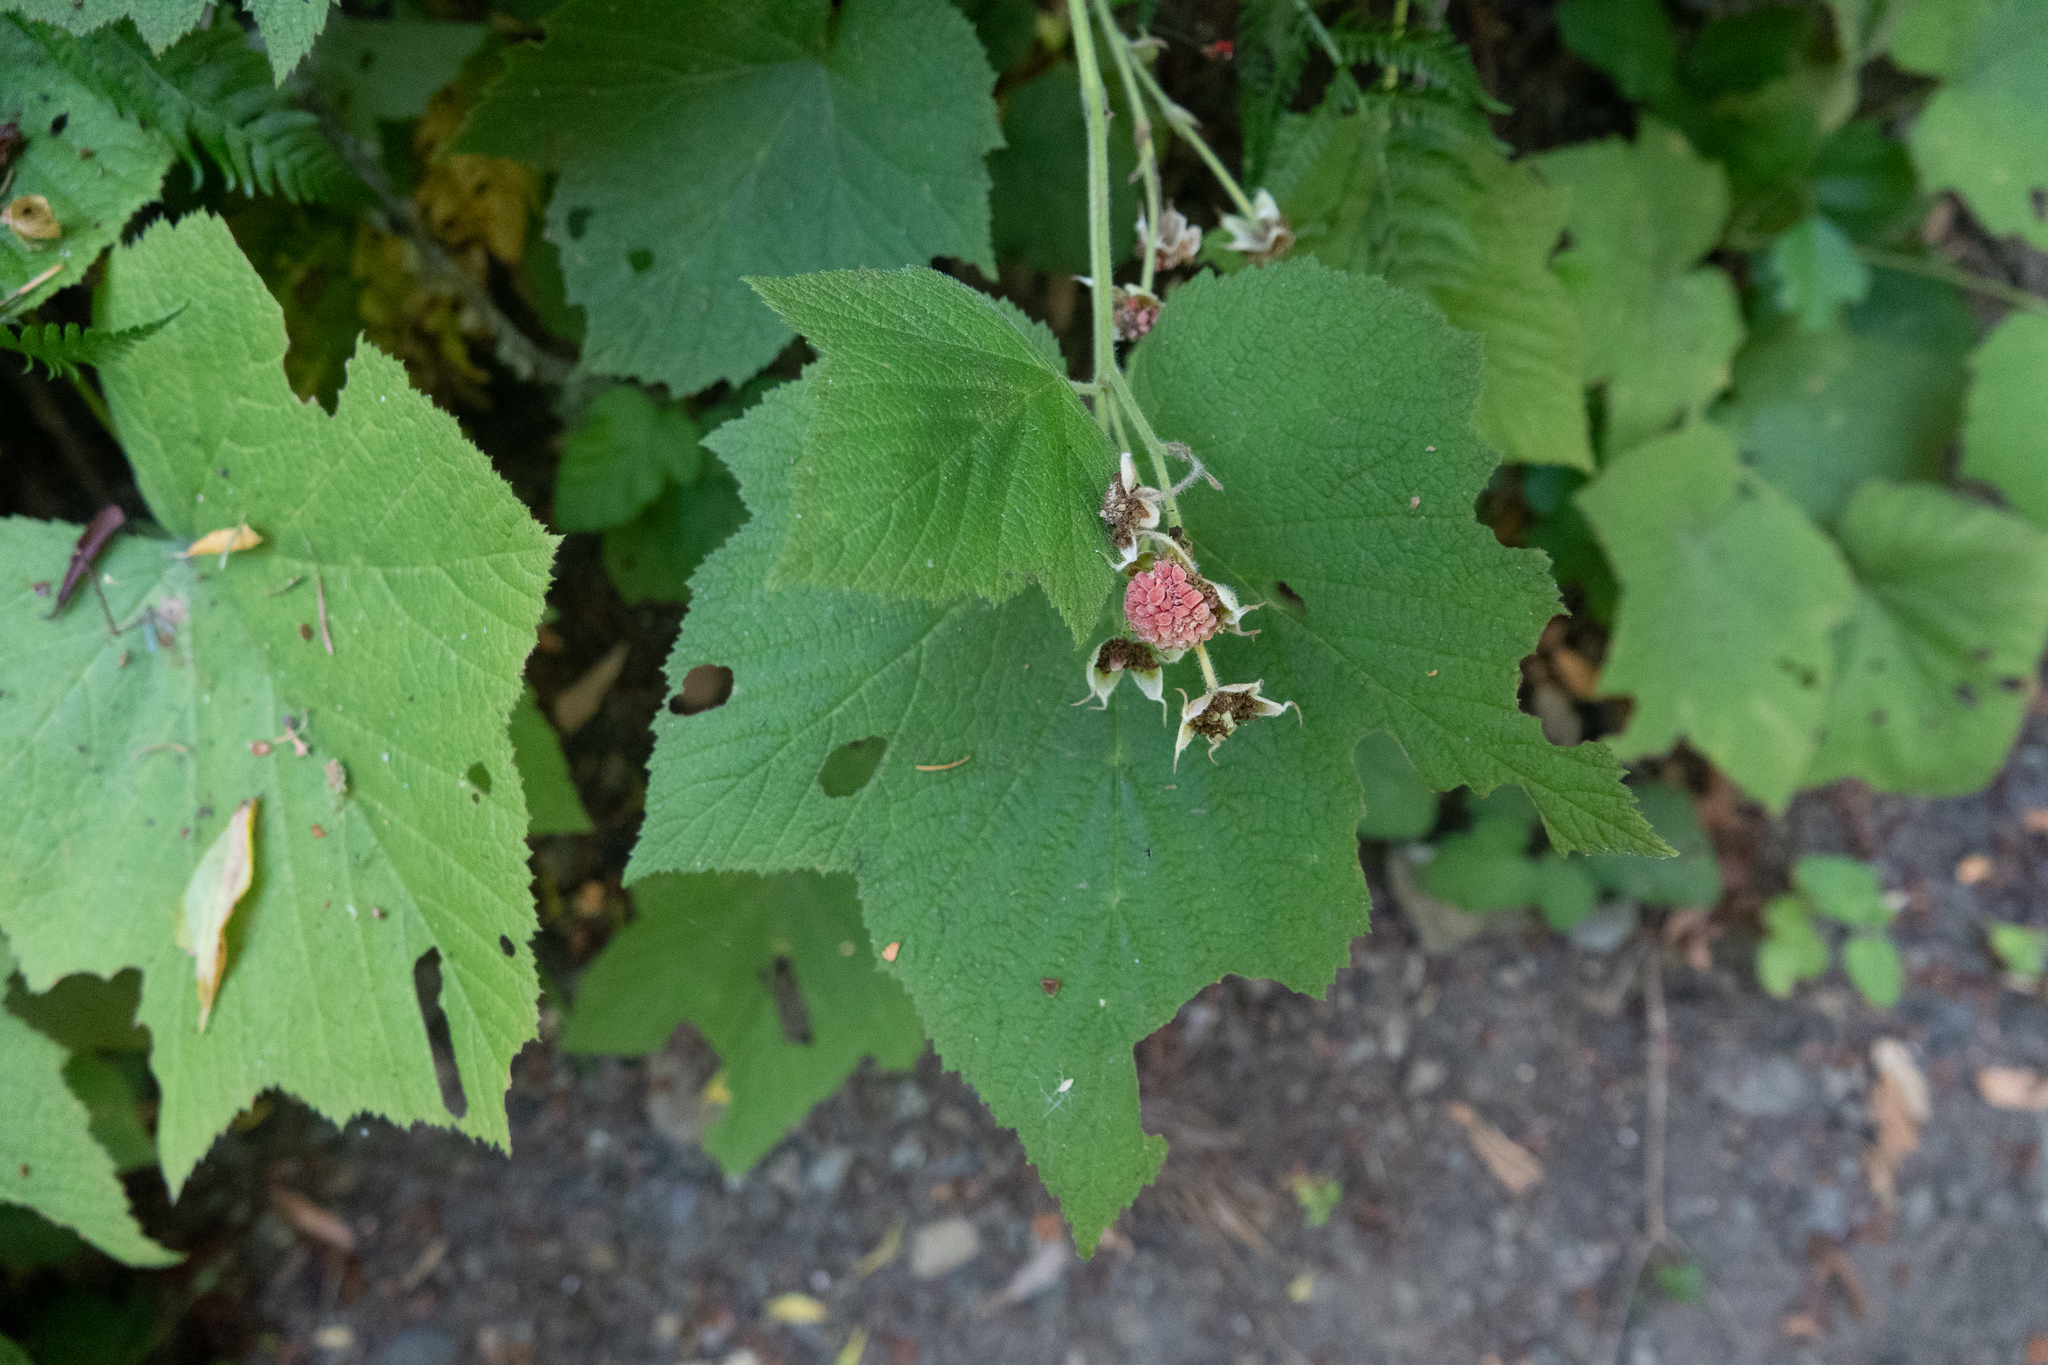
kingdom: Plantae
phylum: Tracheophyta
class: Magnoliopsida
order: Rosales
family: Rosaceae
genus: Rubus
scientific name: Rubus parviflorus
